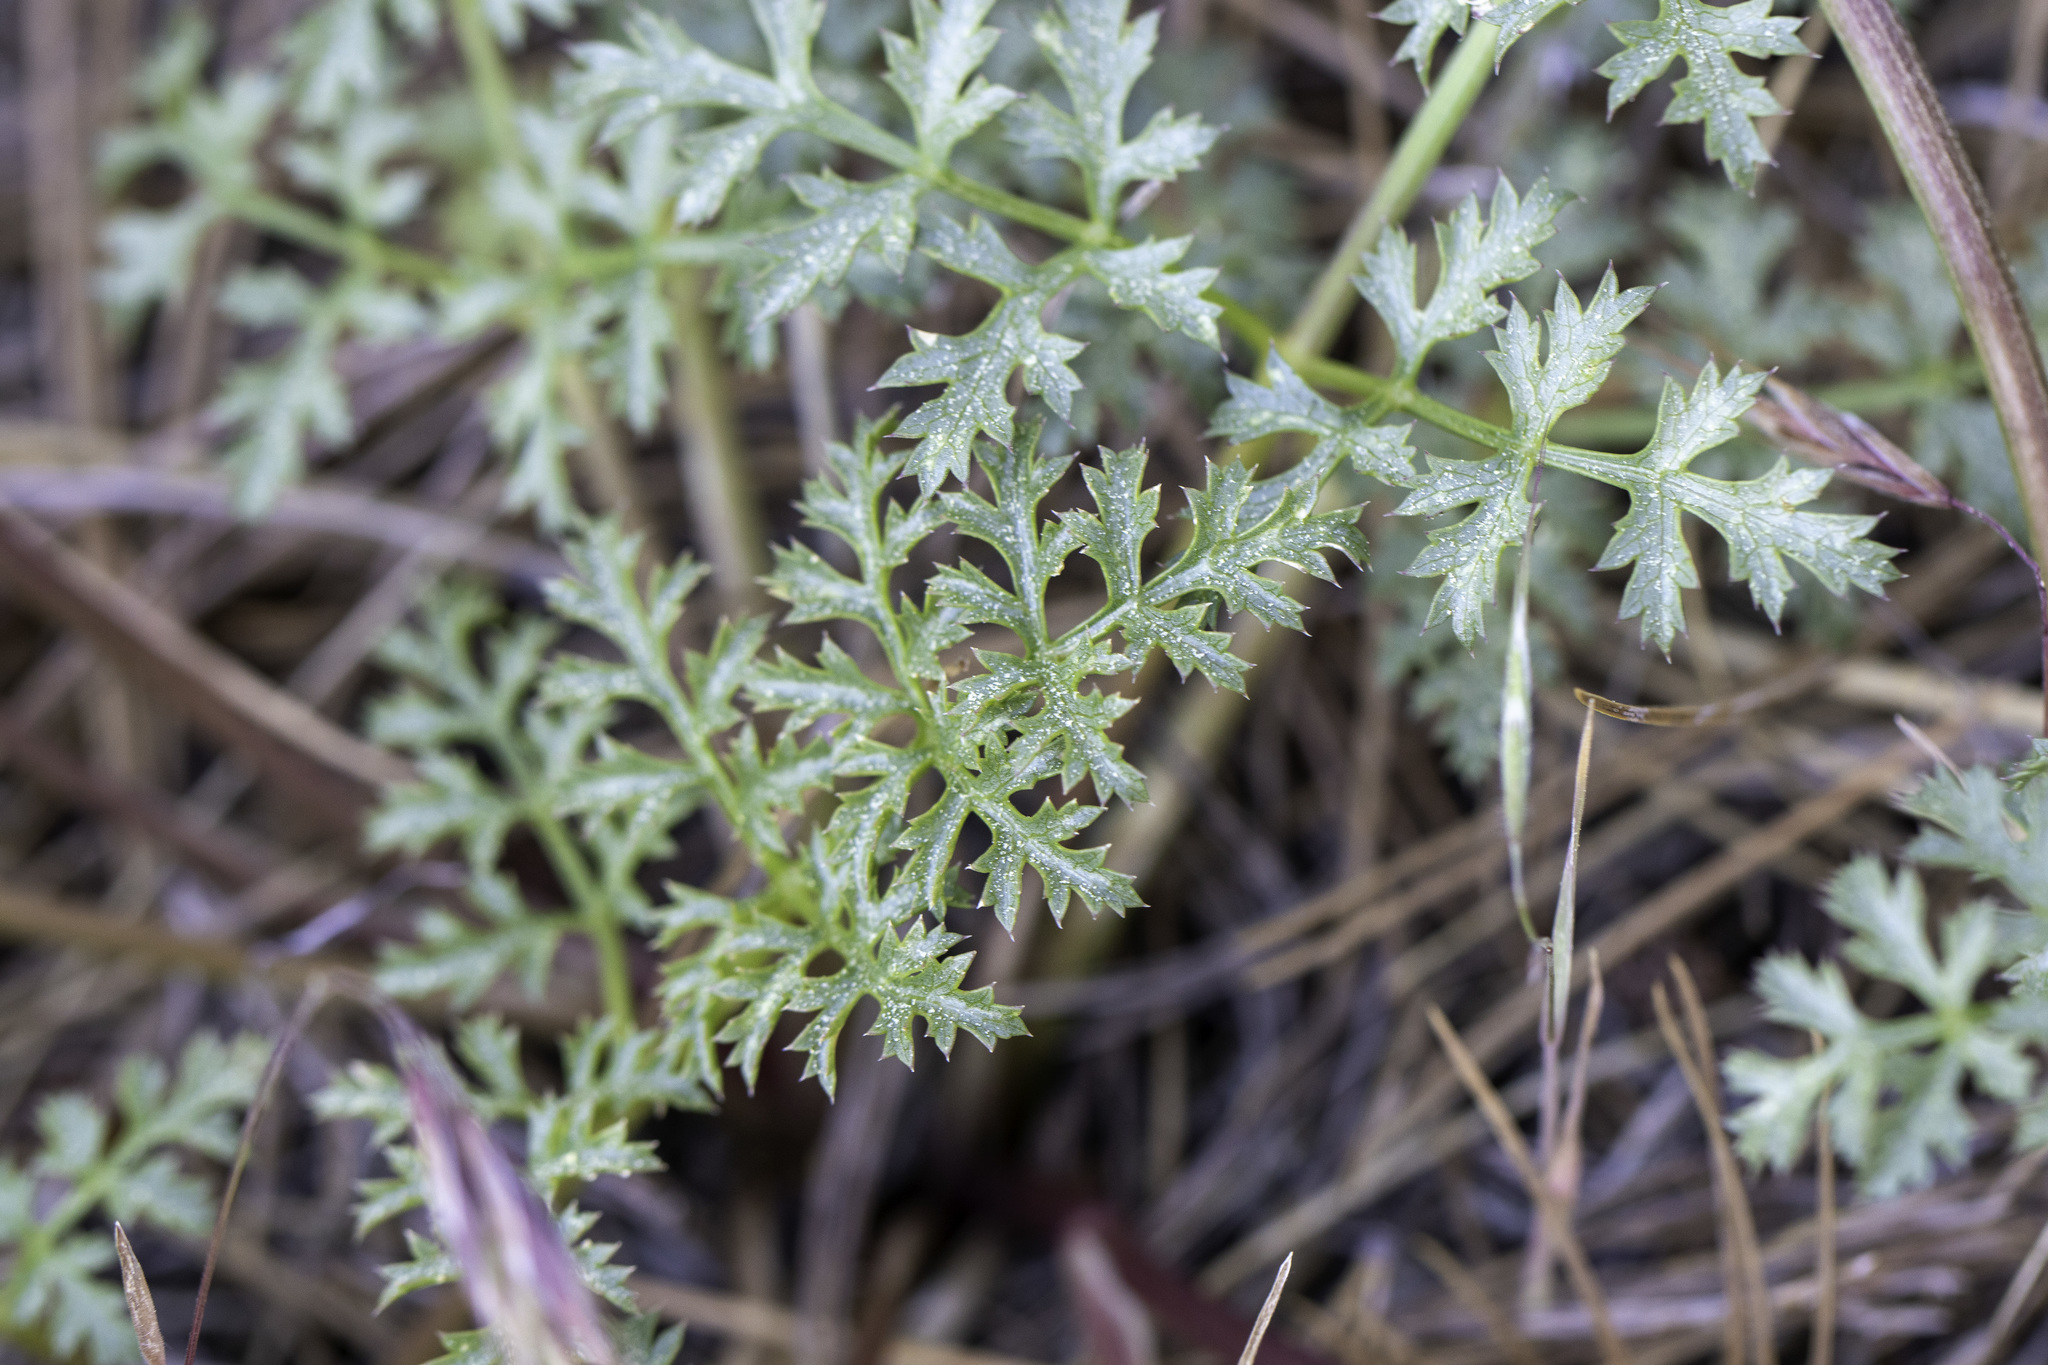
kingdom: Plantae
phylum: Tracheophyta
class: Magnoliopsida
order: Apiales
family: Apiaceae
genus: Tauschia
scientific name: Tauschia parishii
